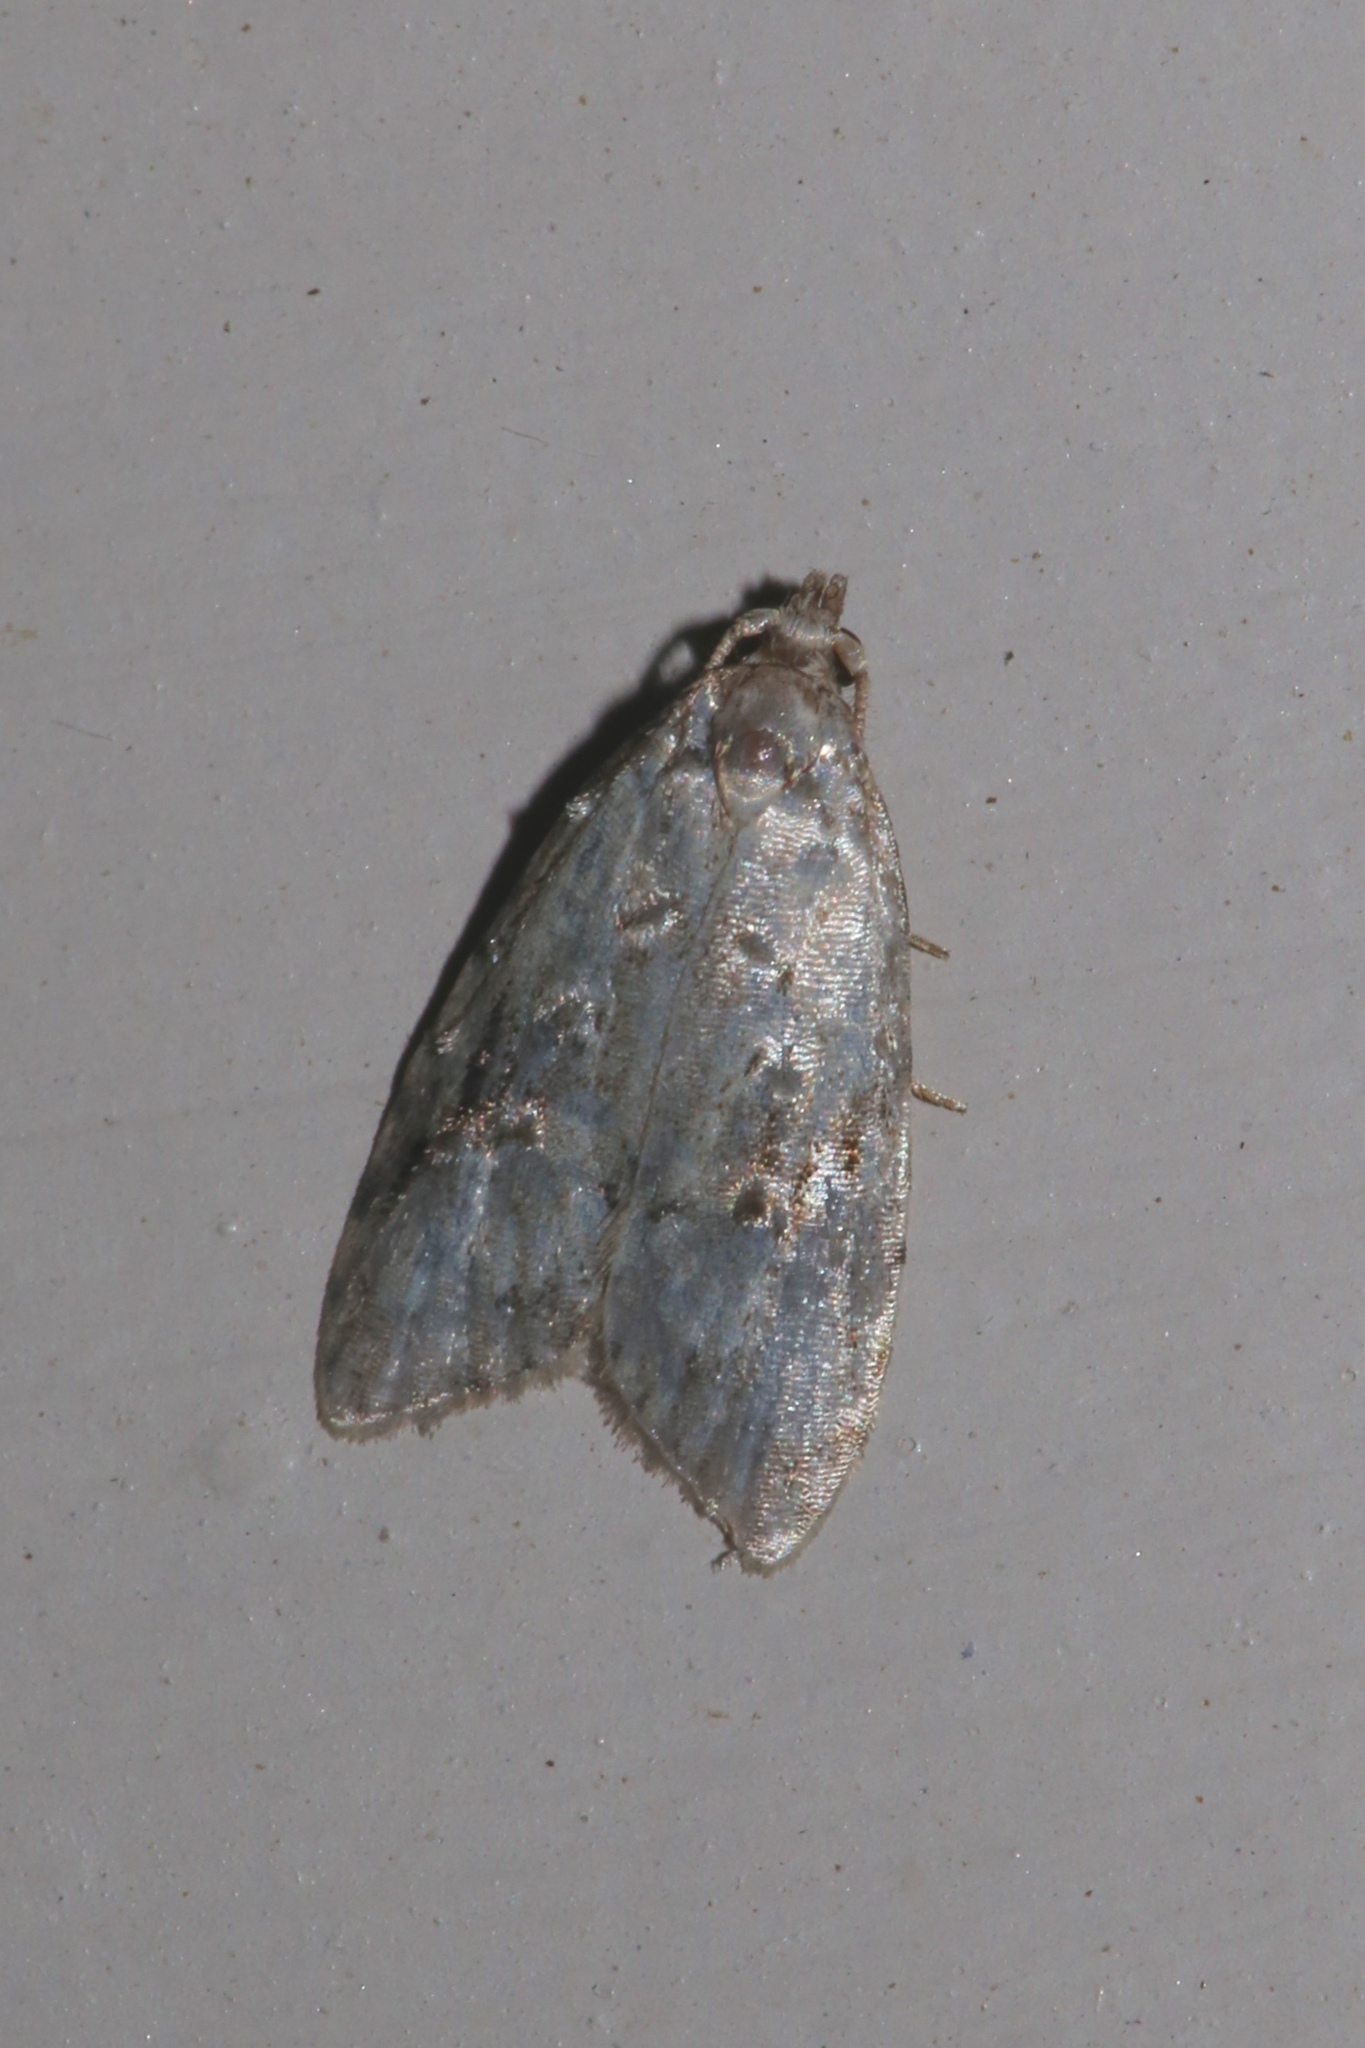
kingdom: Animalia
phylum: Arthropoda
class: Insecta
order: Lepidoptera
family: Carposinidae
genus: Bondia
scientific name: Bondia crescentella
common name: Crescent-marked bondia
